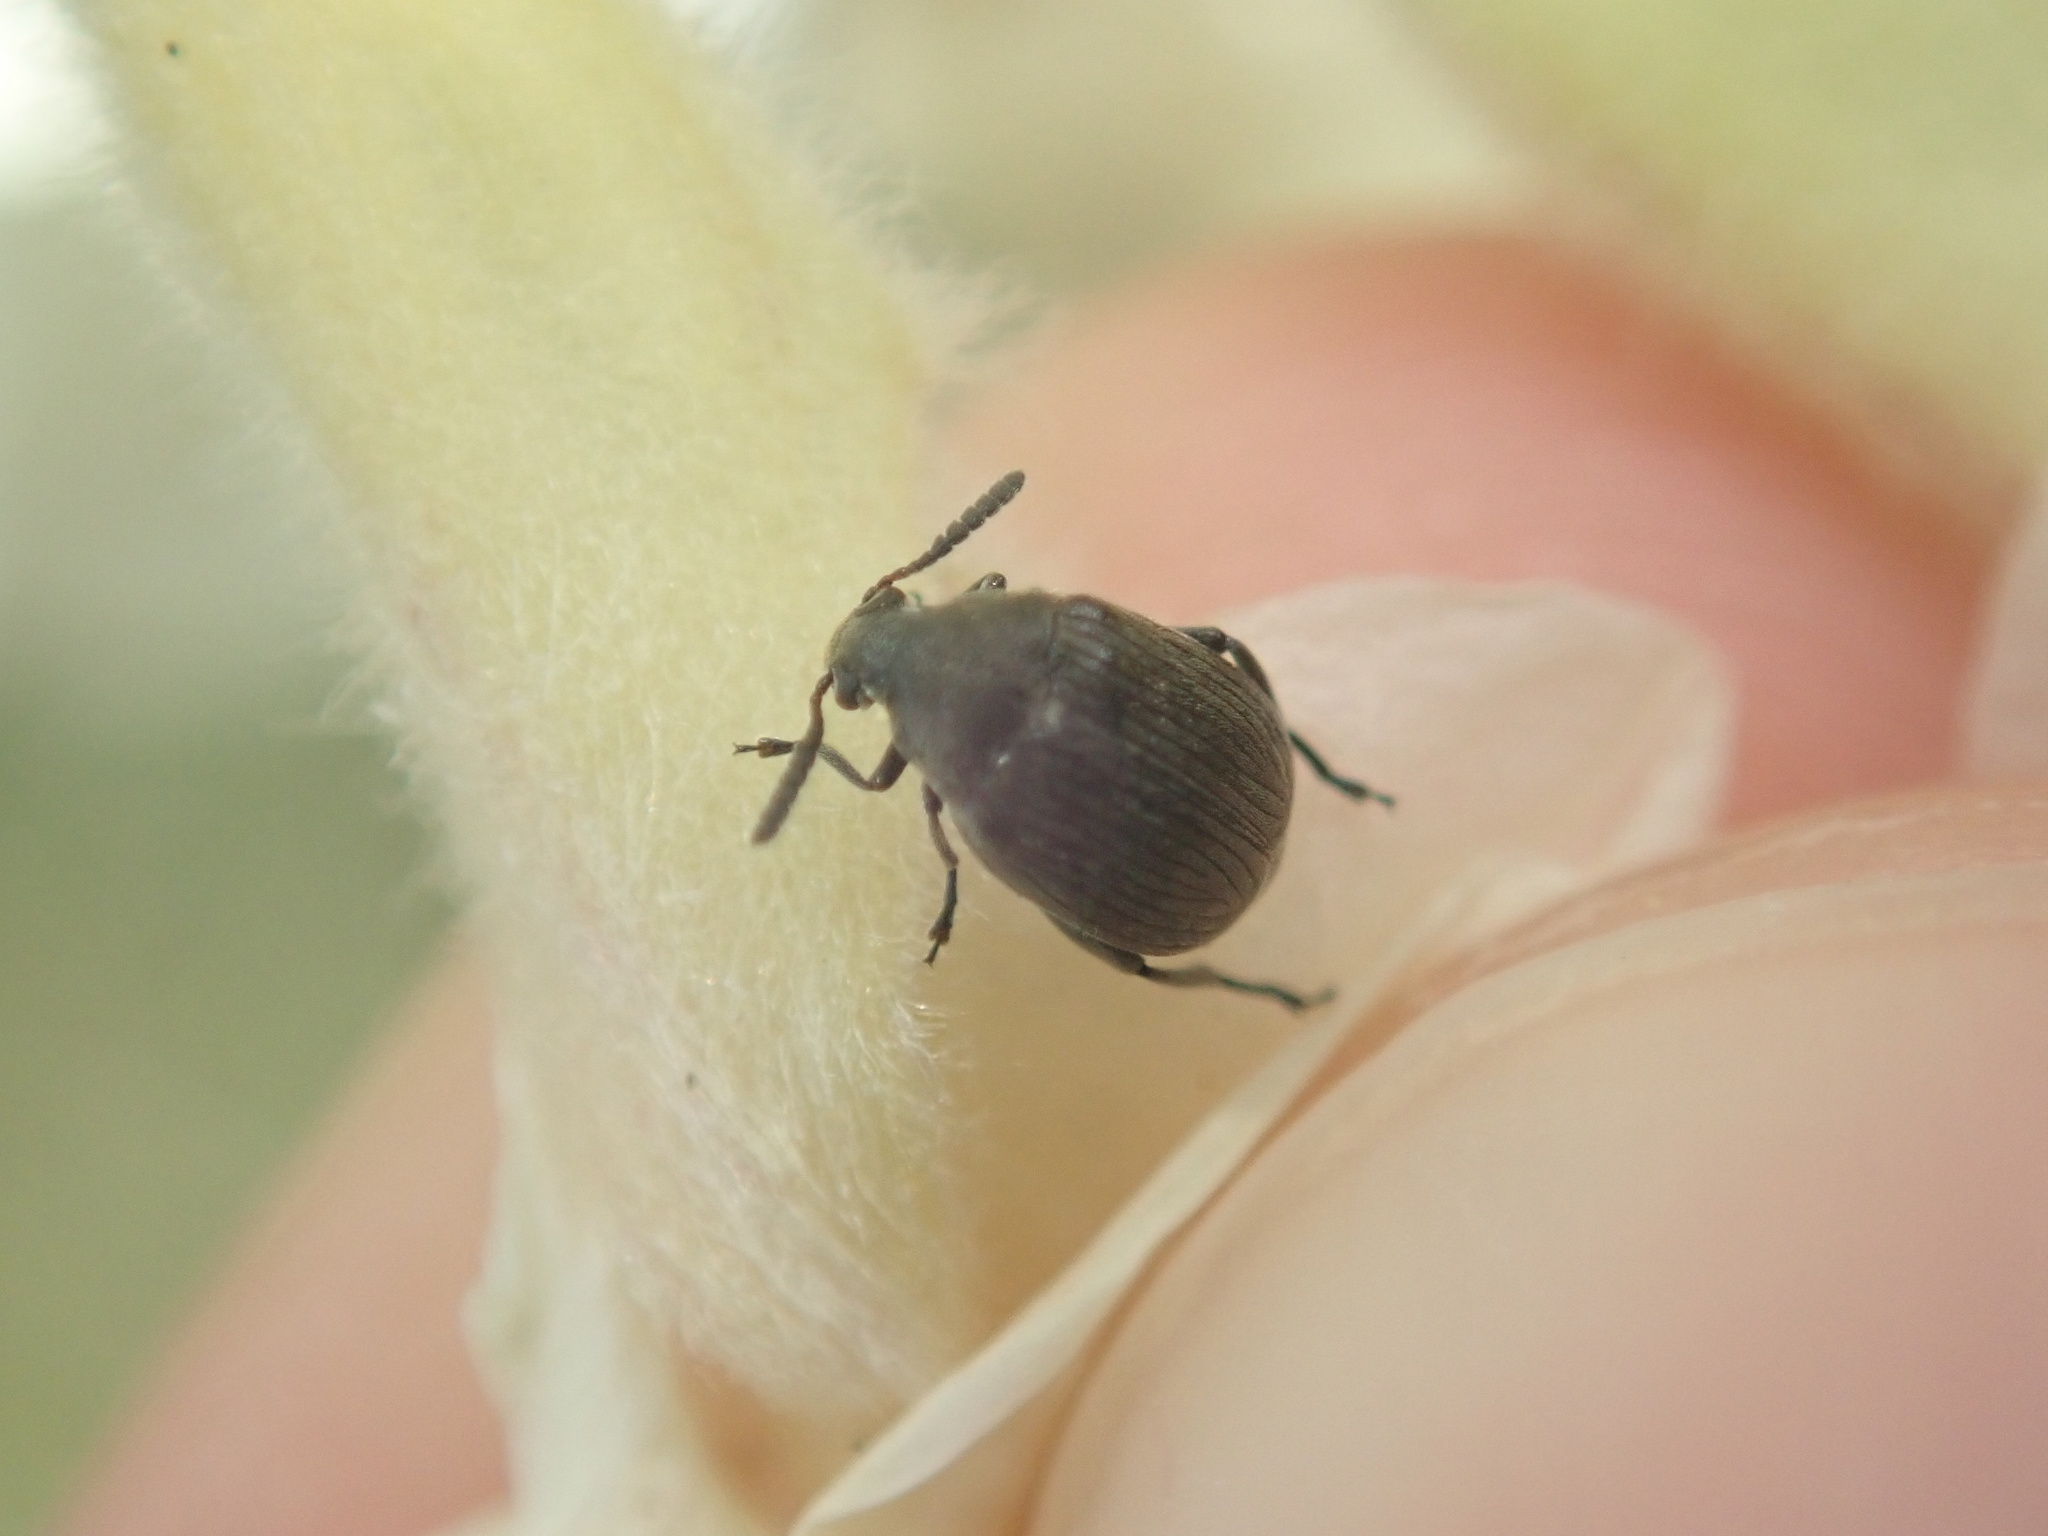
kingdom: Animalia
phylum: Arthropoda
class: Insecta
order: Coleoptera
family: Chrysomelidae
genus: Bruchidius
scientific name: Bruchidius villosus
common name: Scotch broom bruchid
